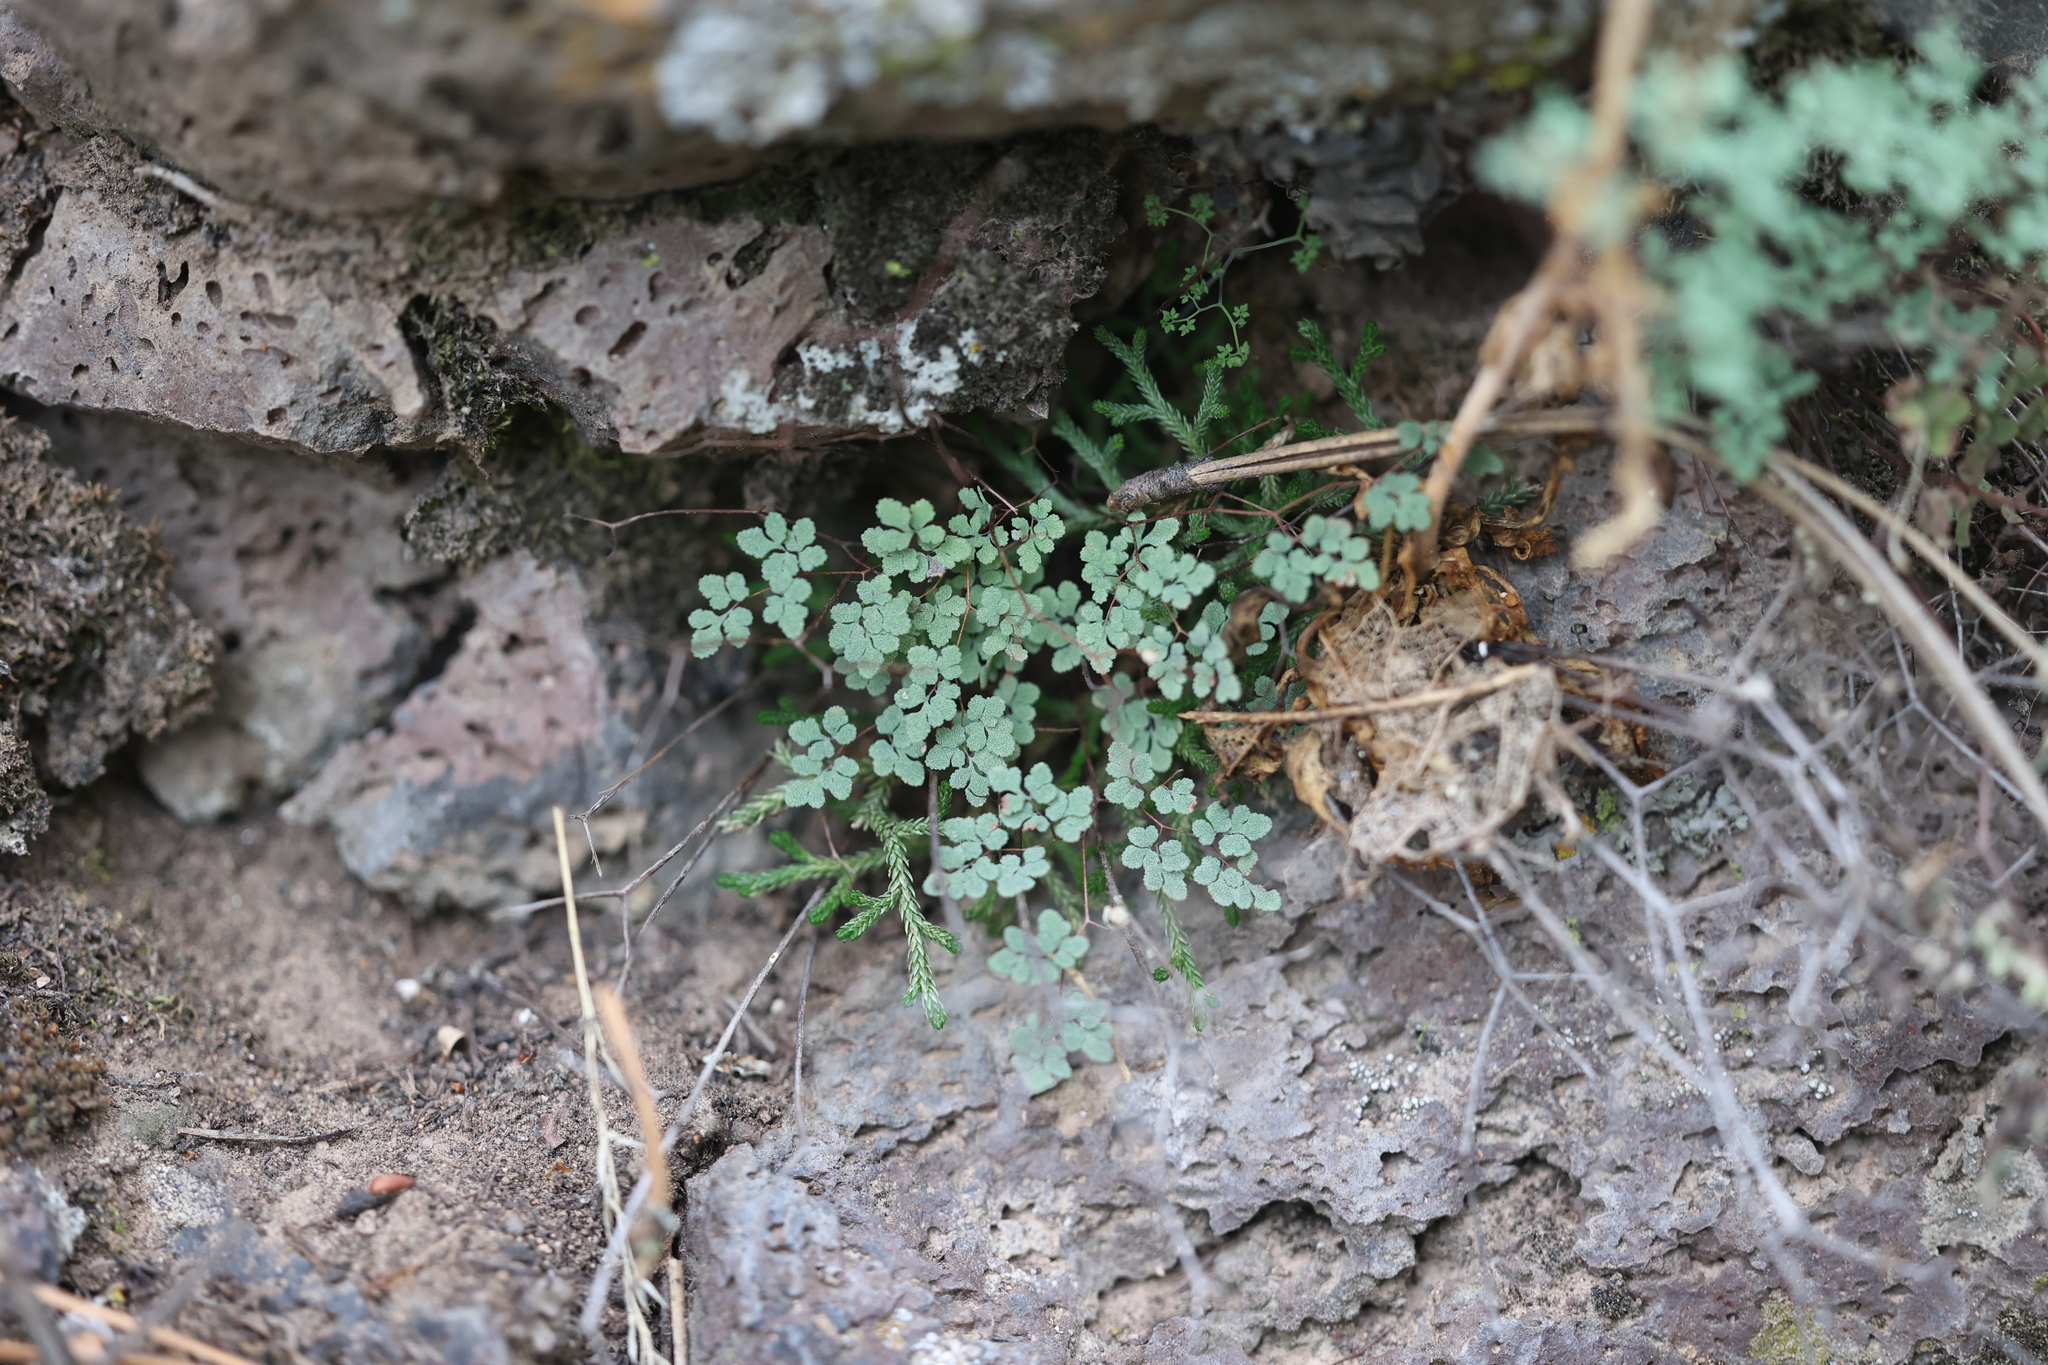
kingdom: Plantae
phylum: Tracheophyta
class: Polypodiopsida
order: Polypodiales
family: Pteridaceae
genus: Argyrochosma
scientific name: Argyrochosma fendleri
